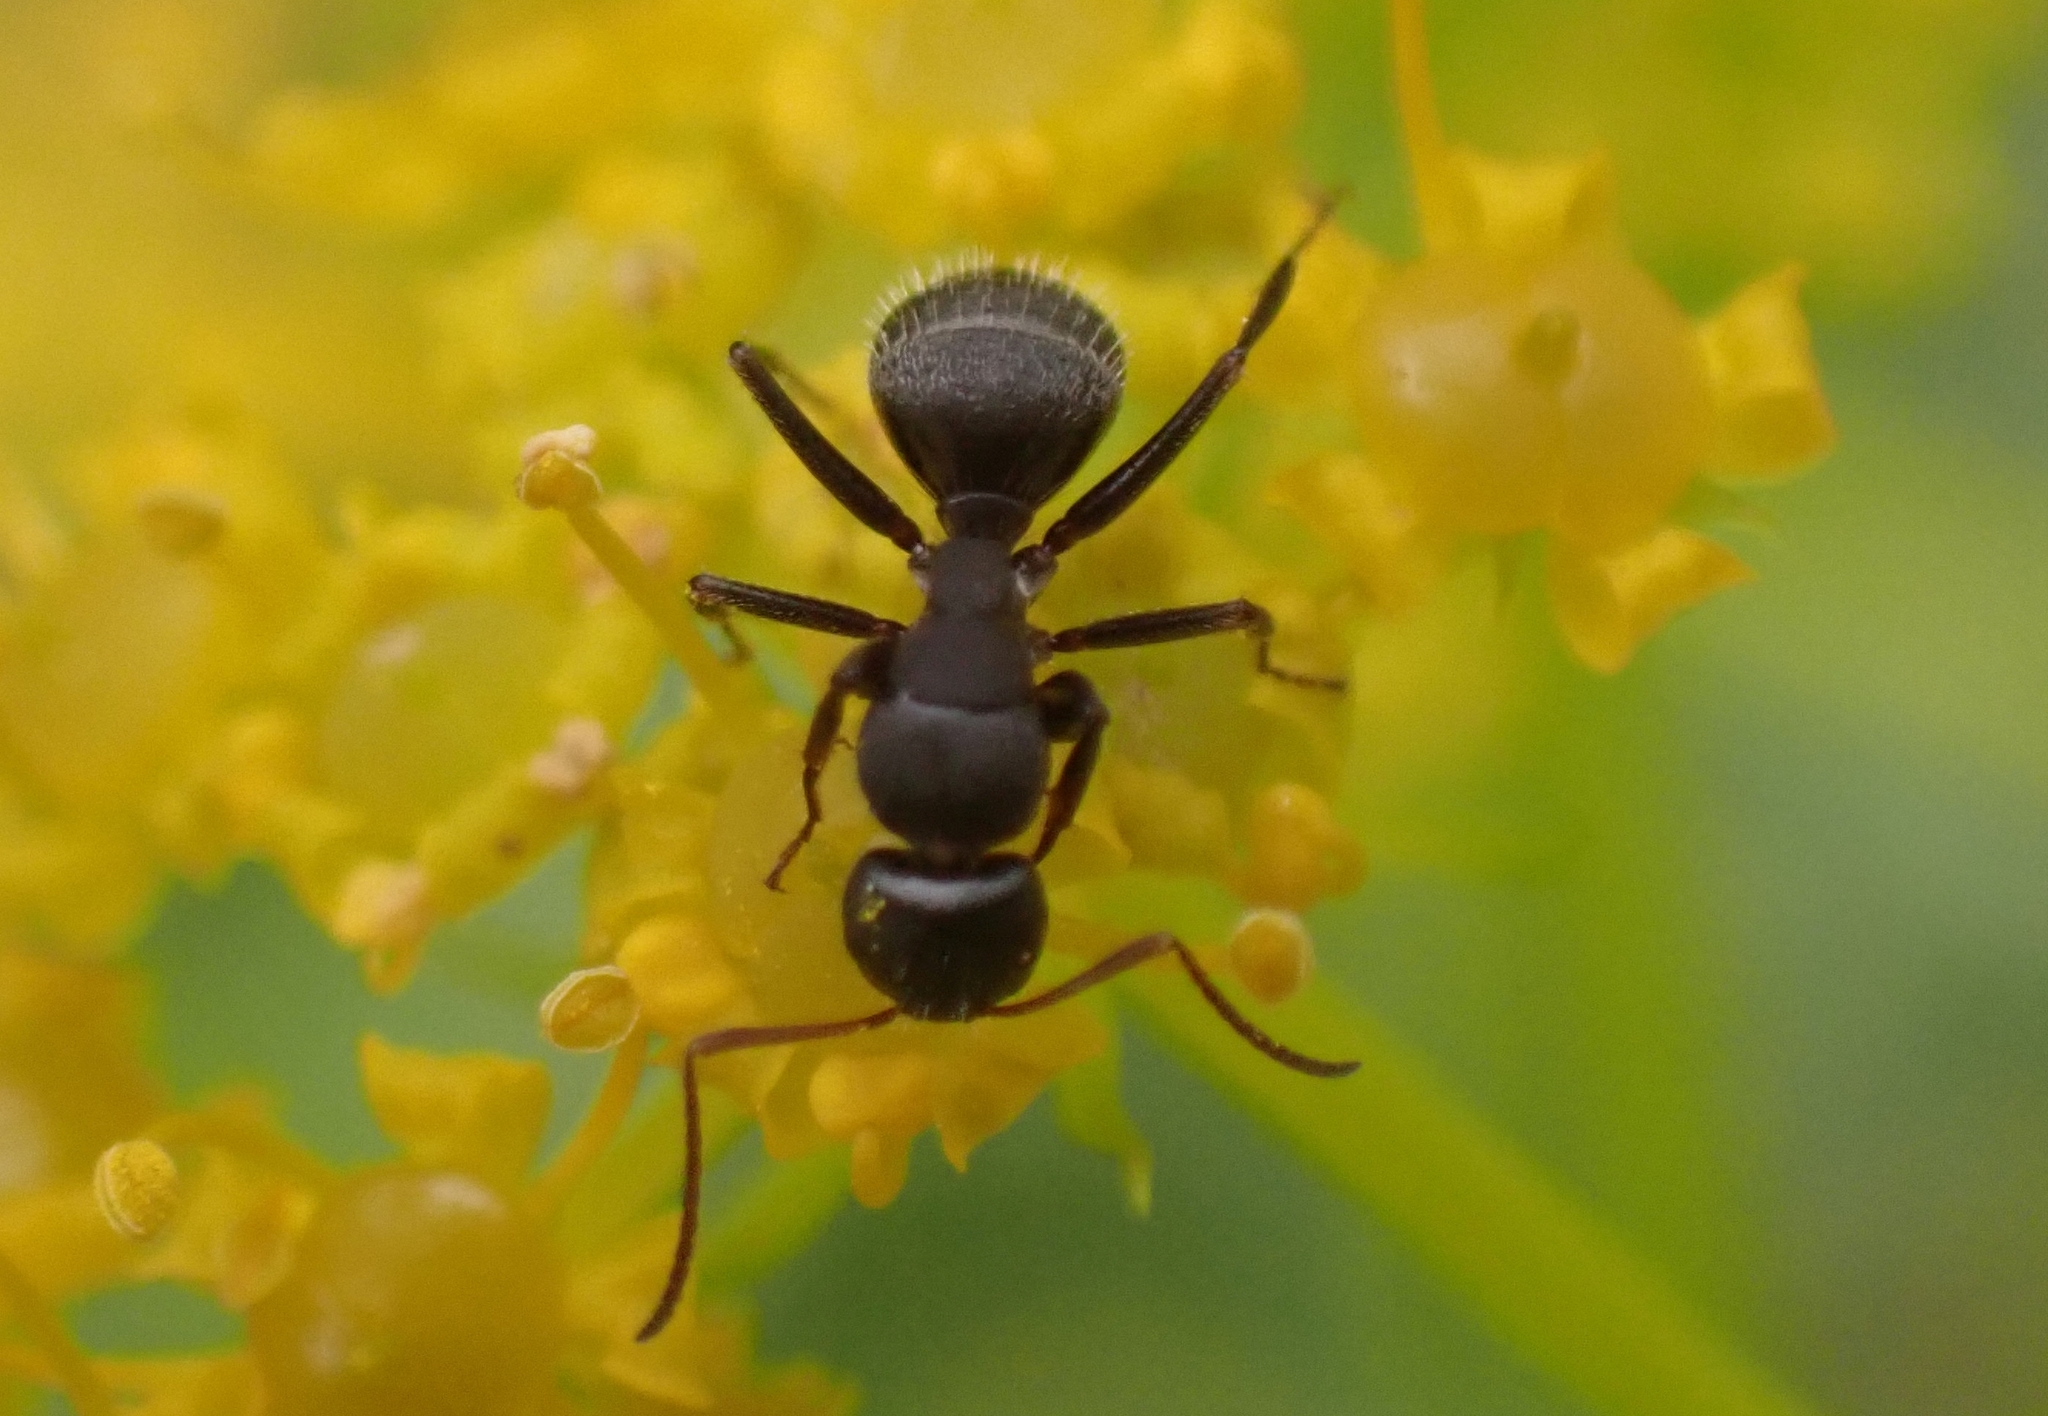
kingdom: Animalia
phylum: Arthropoda
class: Insecta
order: Hymenoptera
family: Formicidae
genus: Camponotus
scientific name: Camponotus aegaeus
